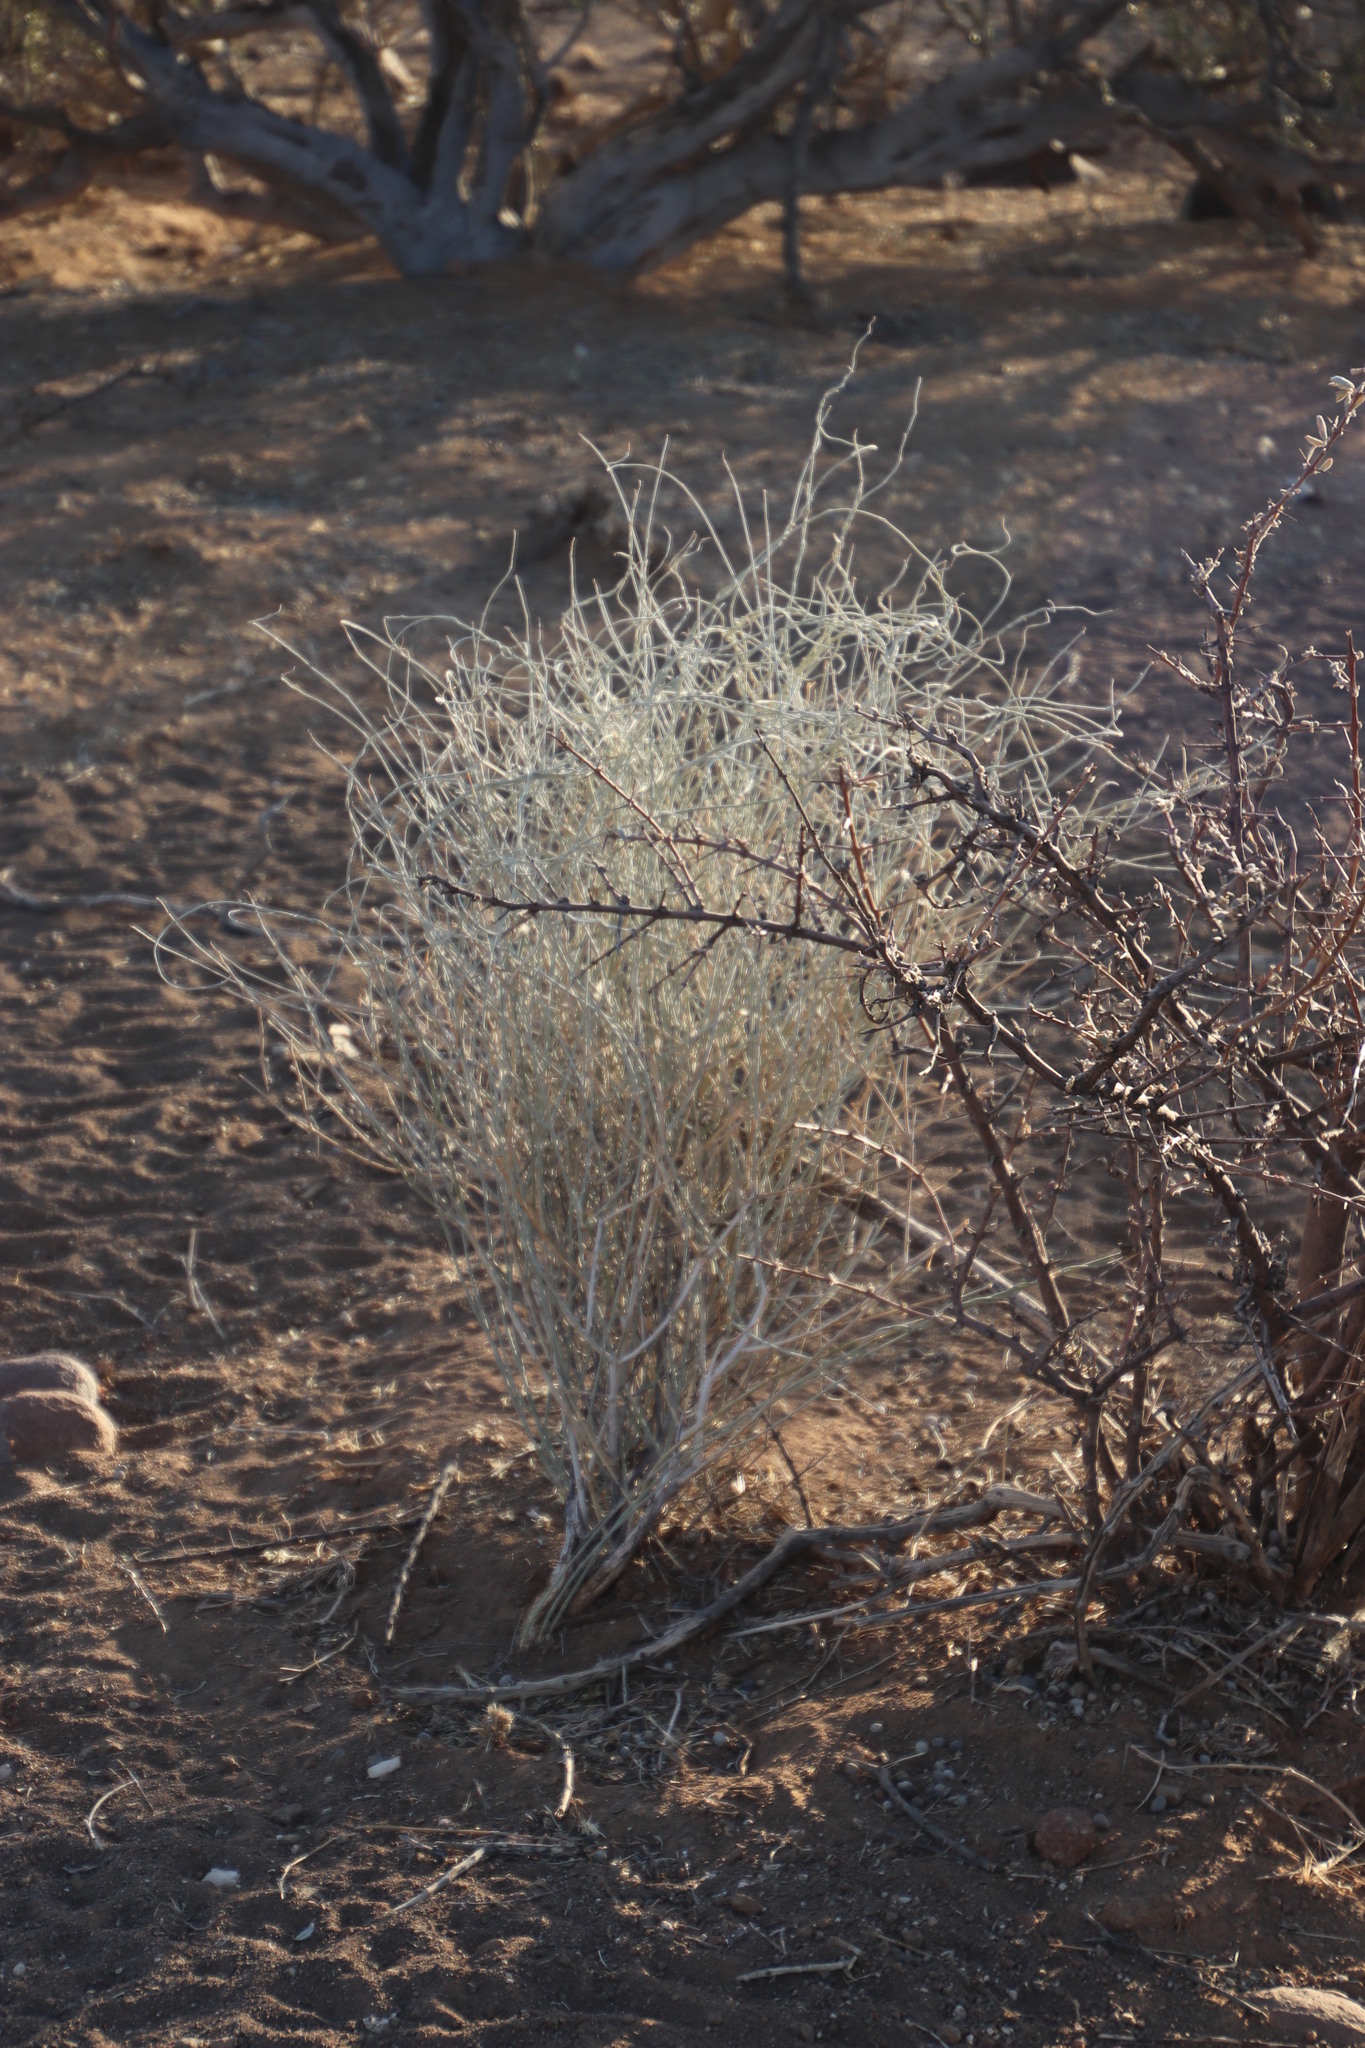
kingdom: Plantae
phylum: Tracheophyta
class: Magnoliopsida
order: Gentianales
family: Apocynaceae
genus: Microloma
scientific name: Microloma incanum
